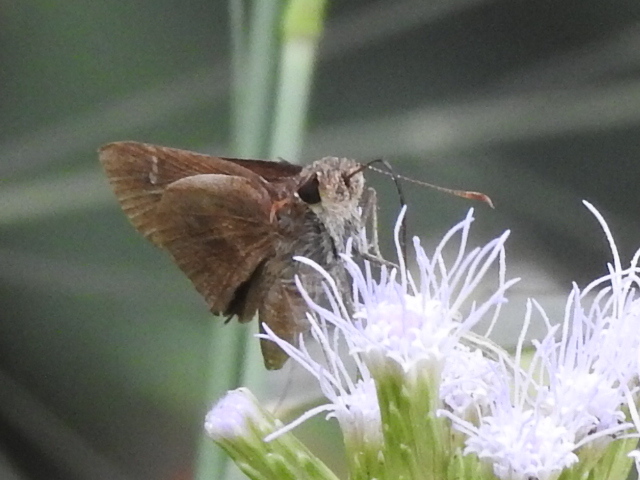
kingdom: Animalia
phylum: Arthropoda
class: Insecta
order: Lepidoptera
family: Hesperiidae
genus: Cymaenes
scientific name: Cymaenes
